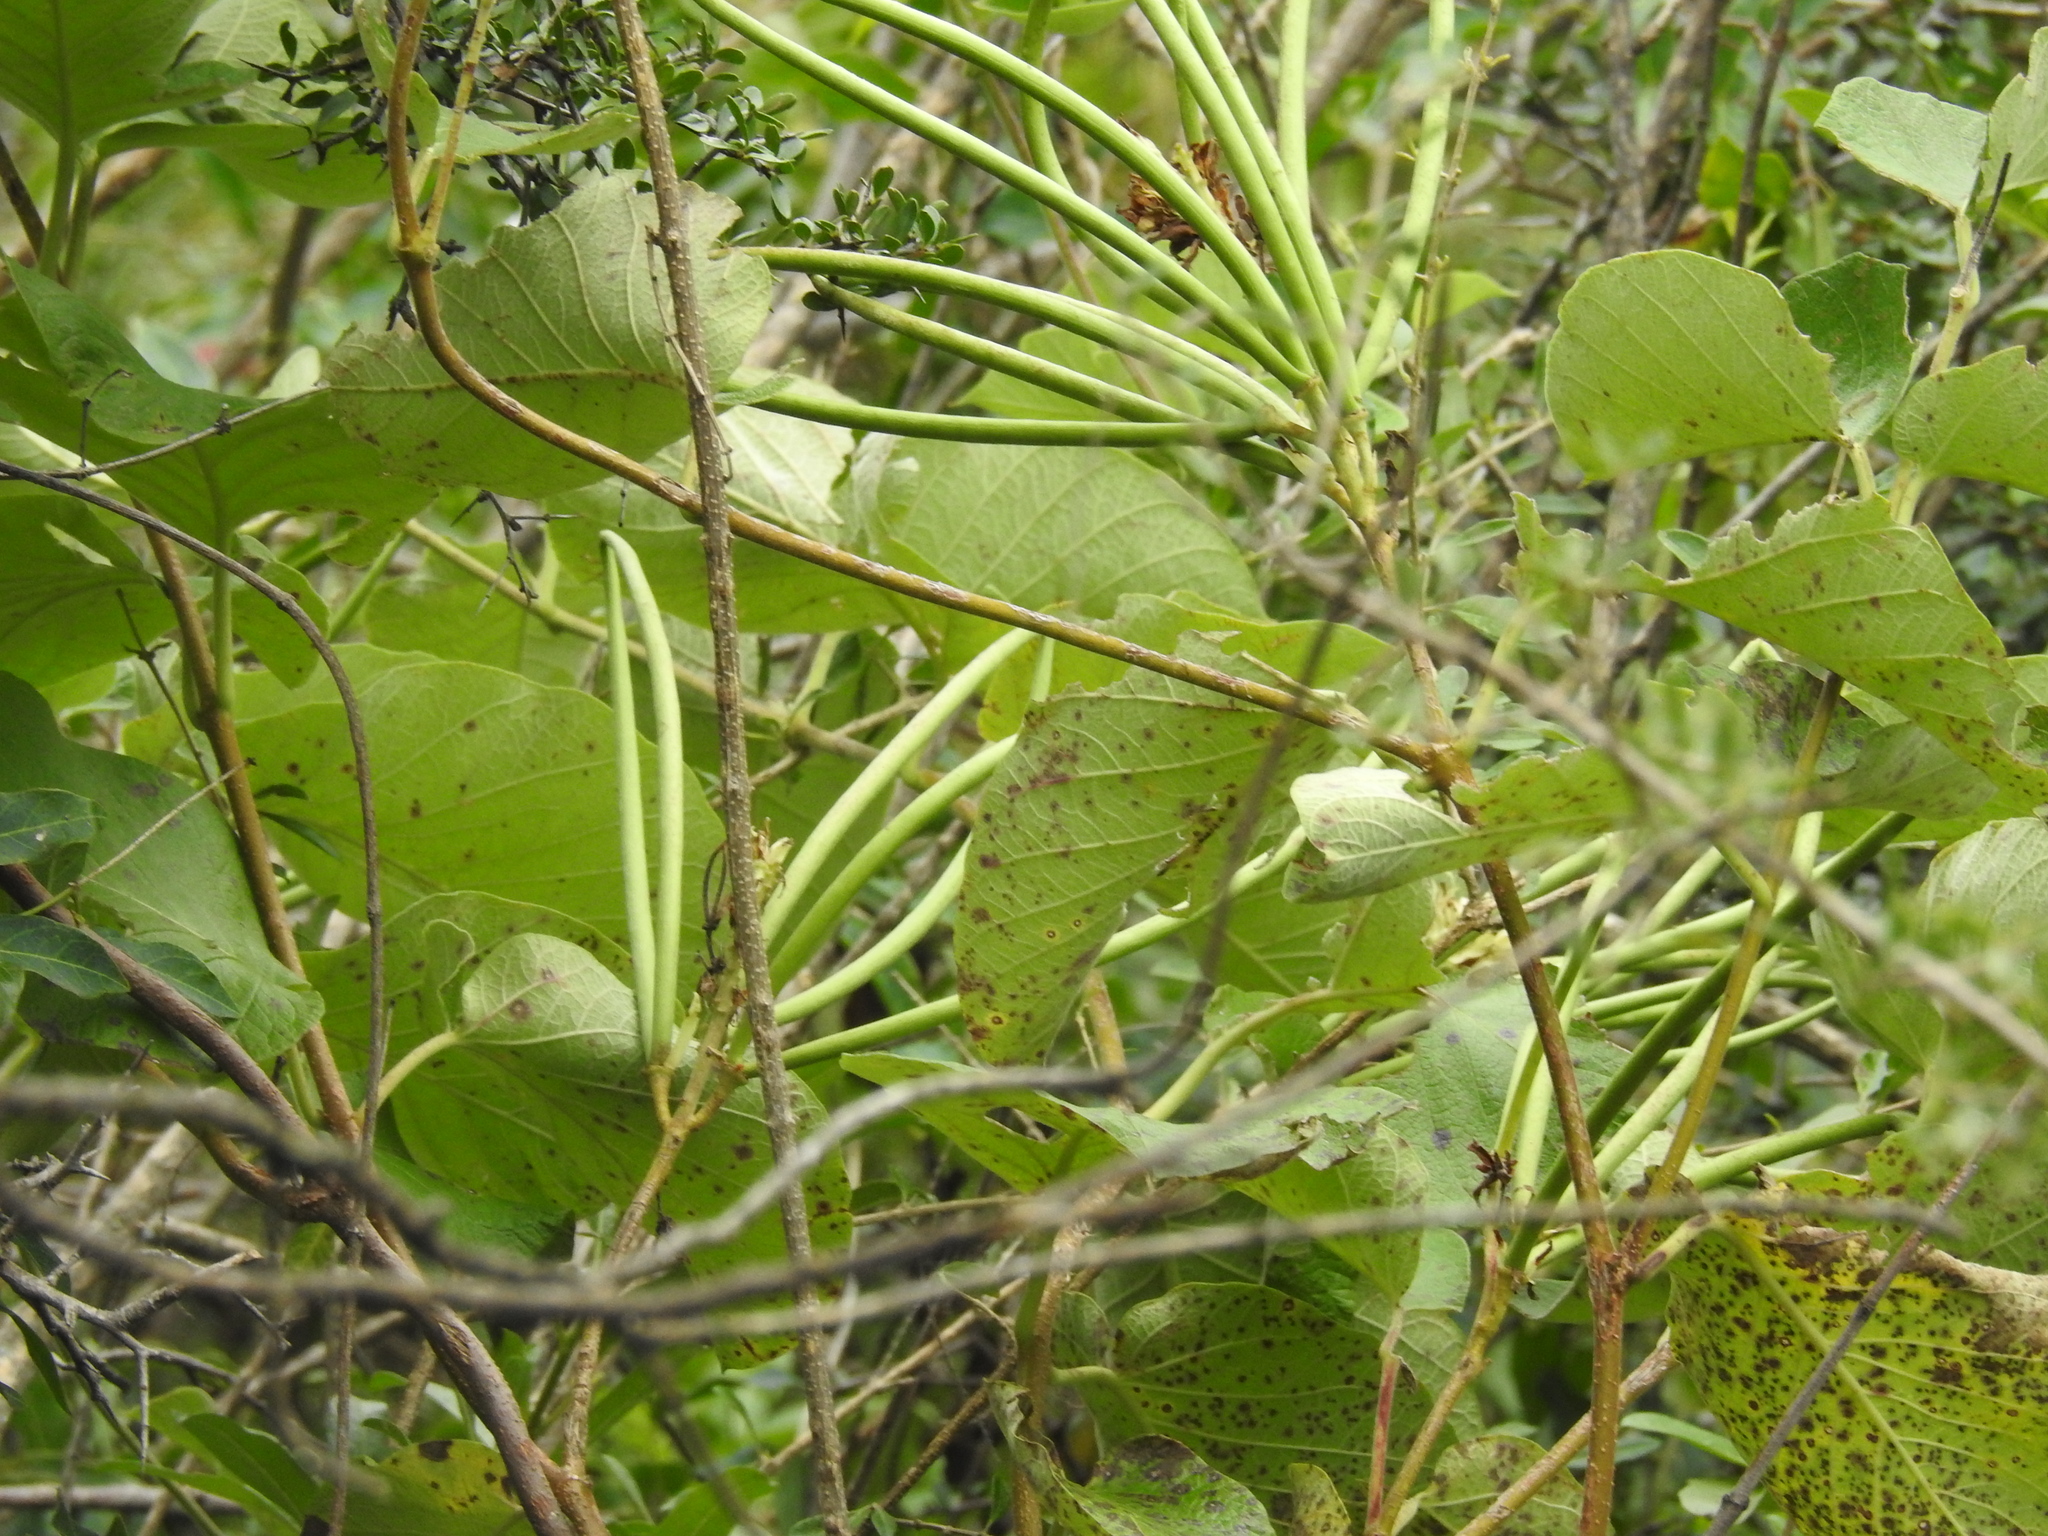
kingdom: Plantae
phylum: Tracheophyta
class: Magnoliopsida
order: Gentianales
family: Apocynaceae
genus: Mandevilla
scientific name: Mandevilla pentlandiana
